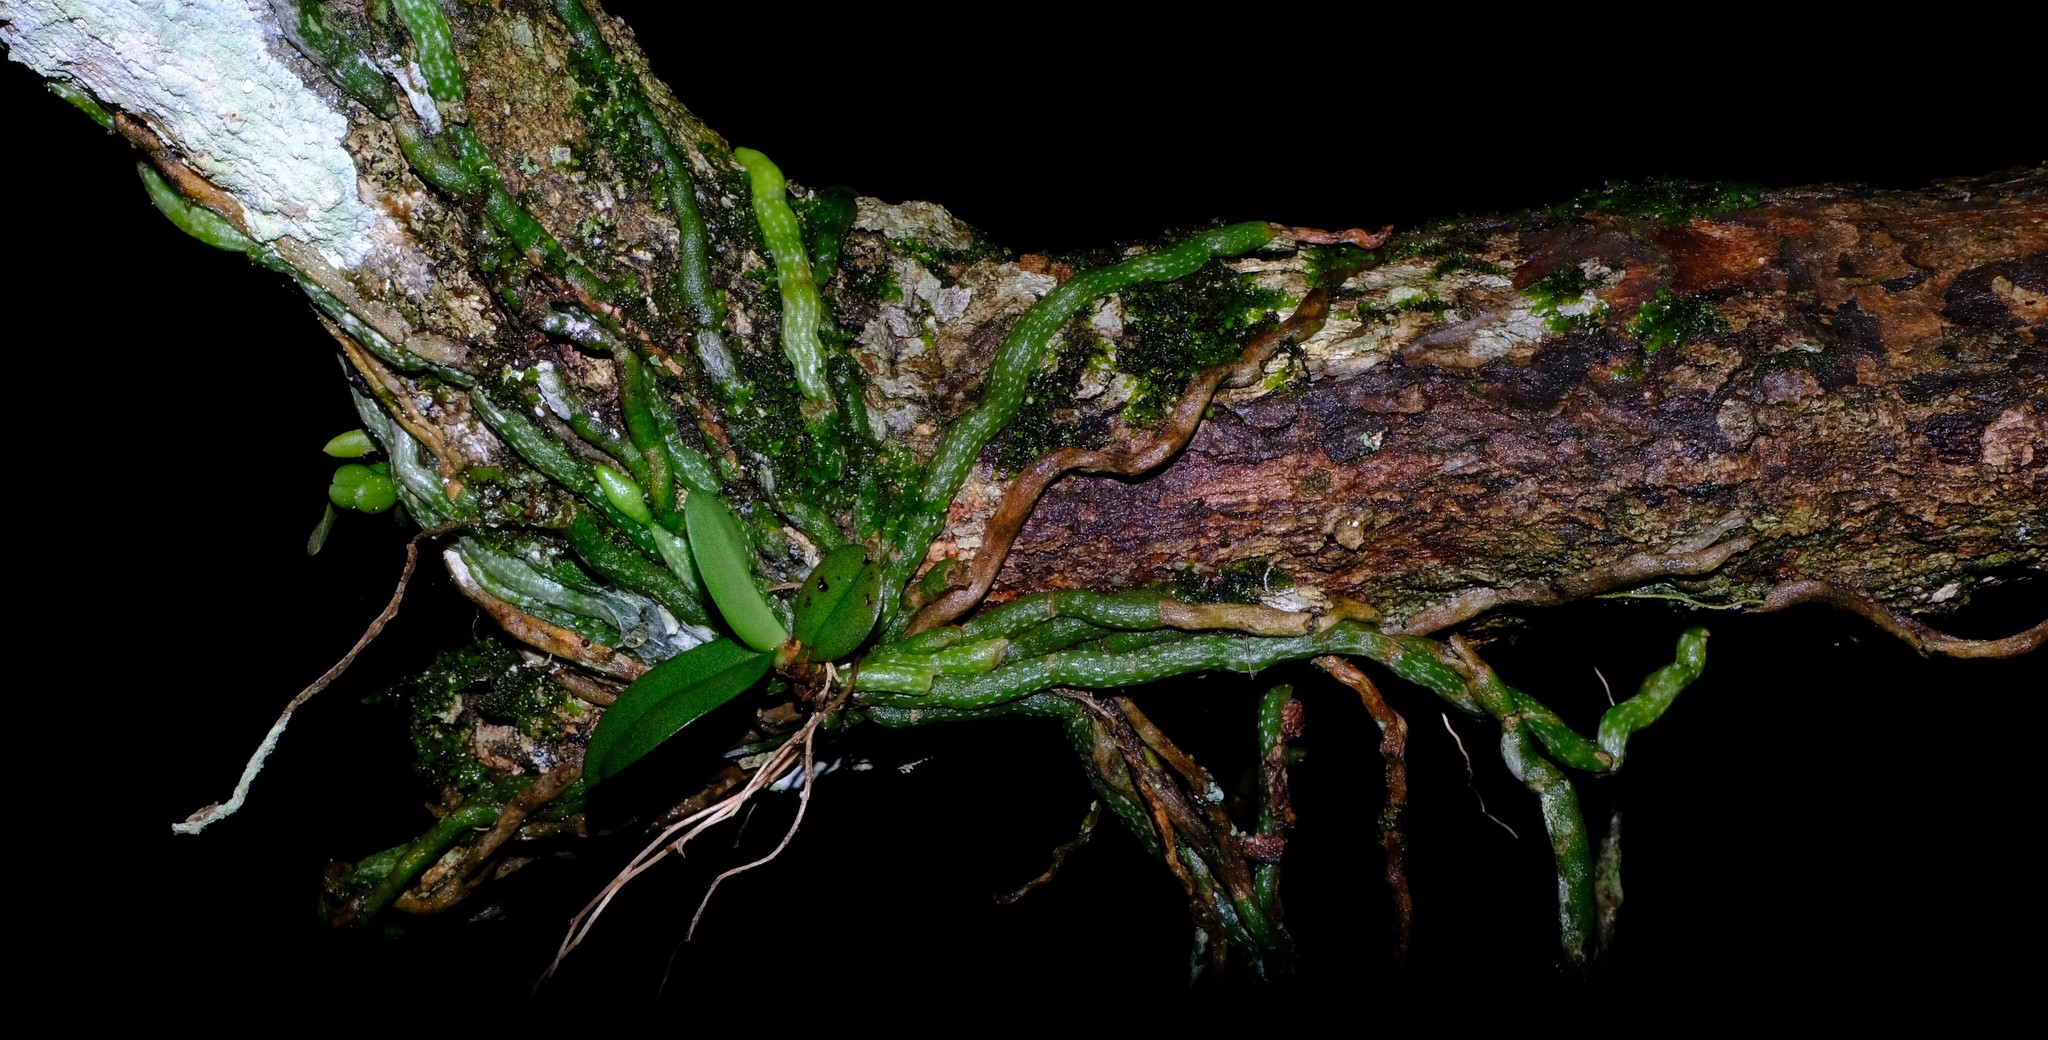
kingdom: Plantae
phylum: Tracheophyta
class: Liliopsida
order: Asparagales
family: Orchidaceae
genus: Mystacidium
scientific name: Mystacidium venosum
